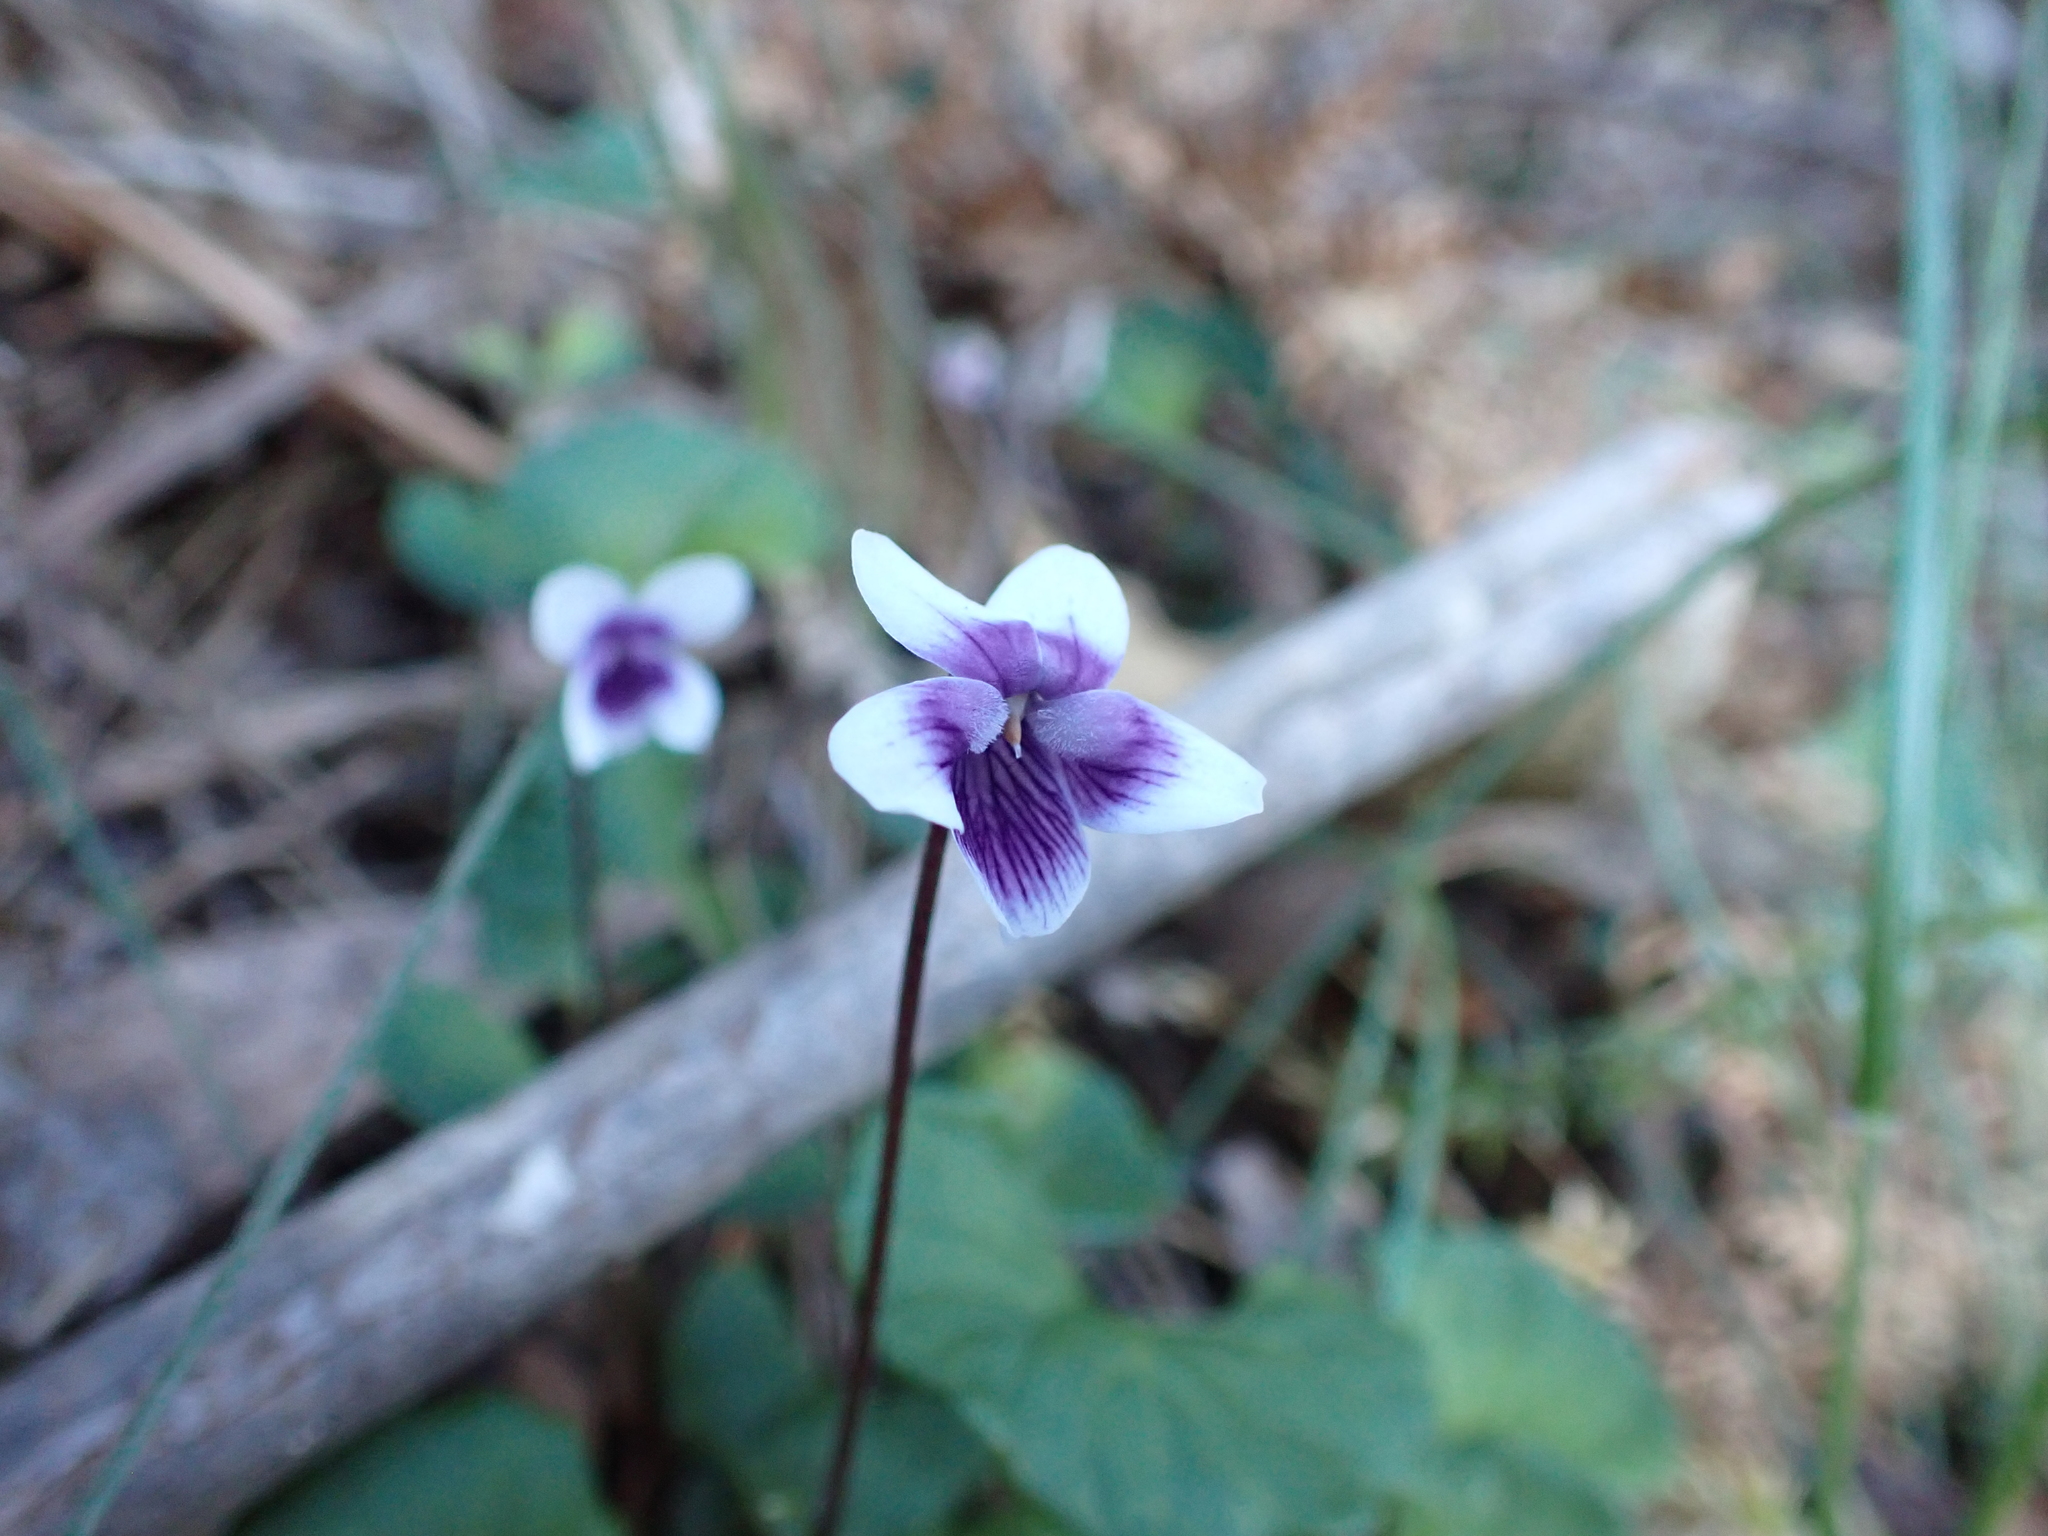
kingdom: Plantae
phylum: Tracheophyta
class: Magnoliopsida
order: Malpighiales
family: Violaceae
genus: Viola
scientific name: Viola hederacea
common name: Australian violet
